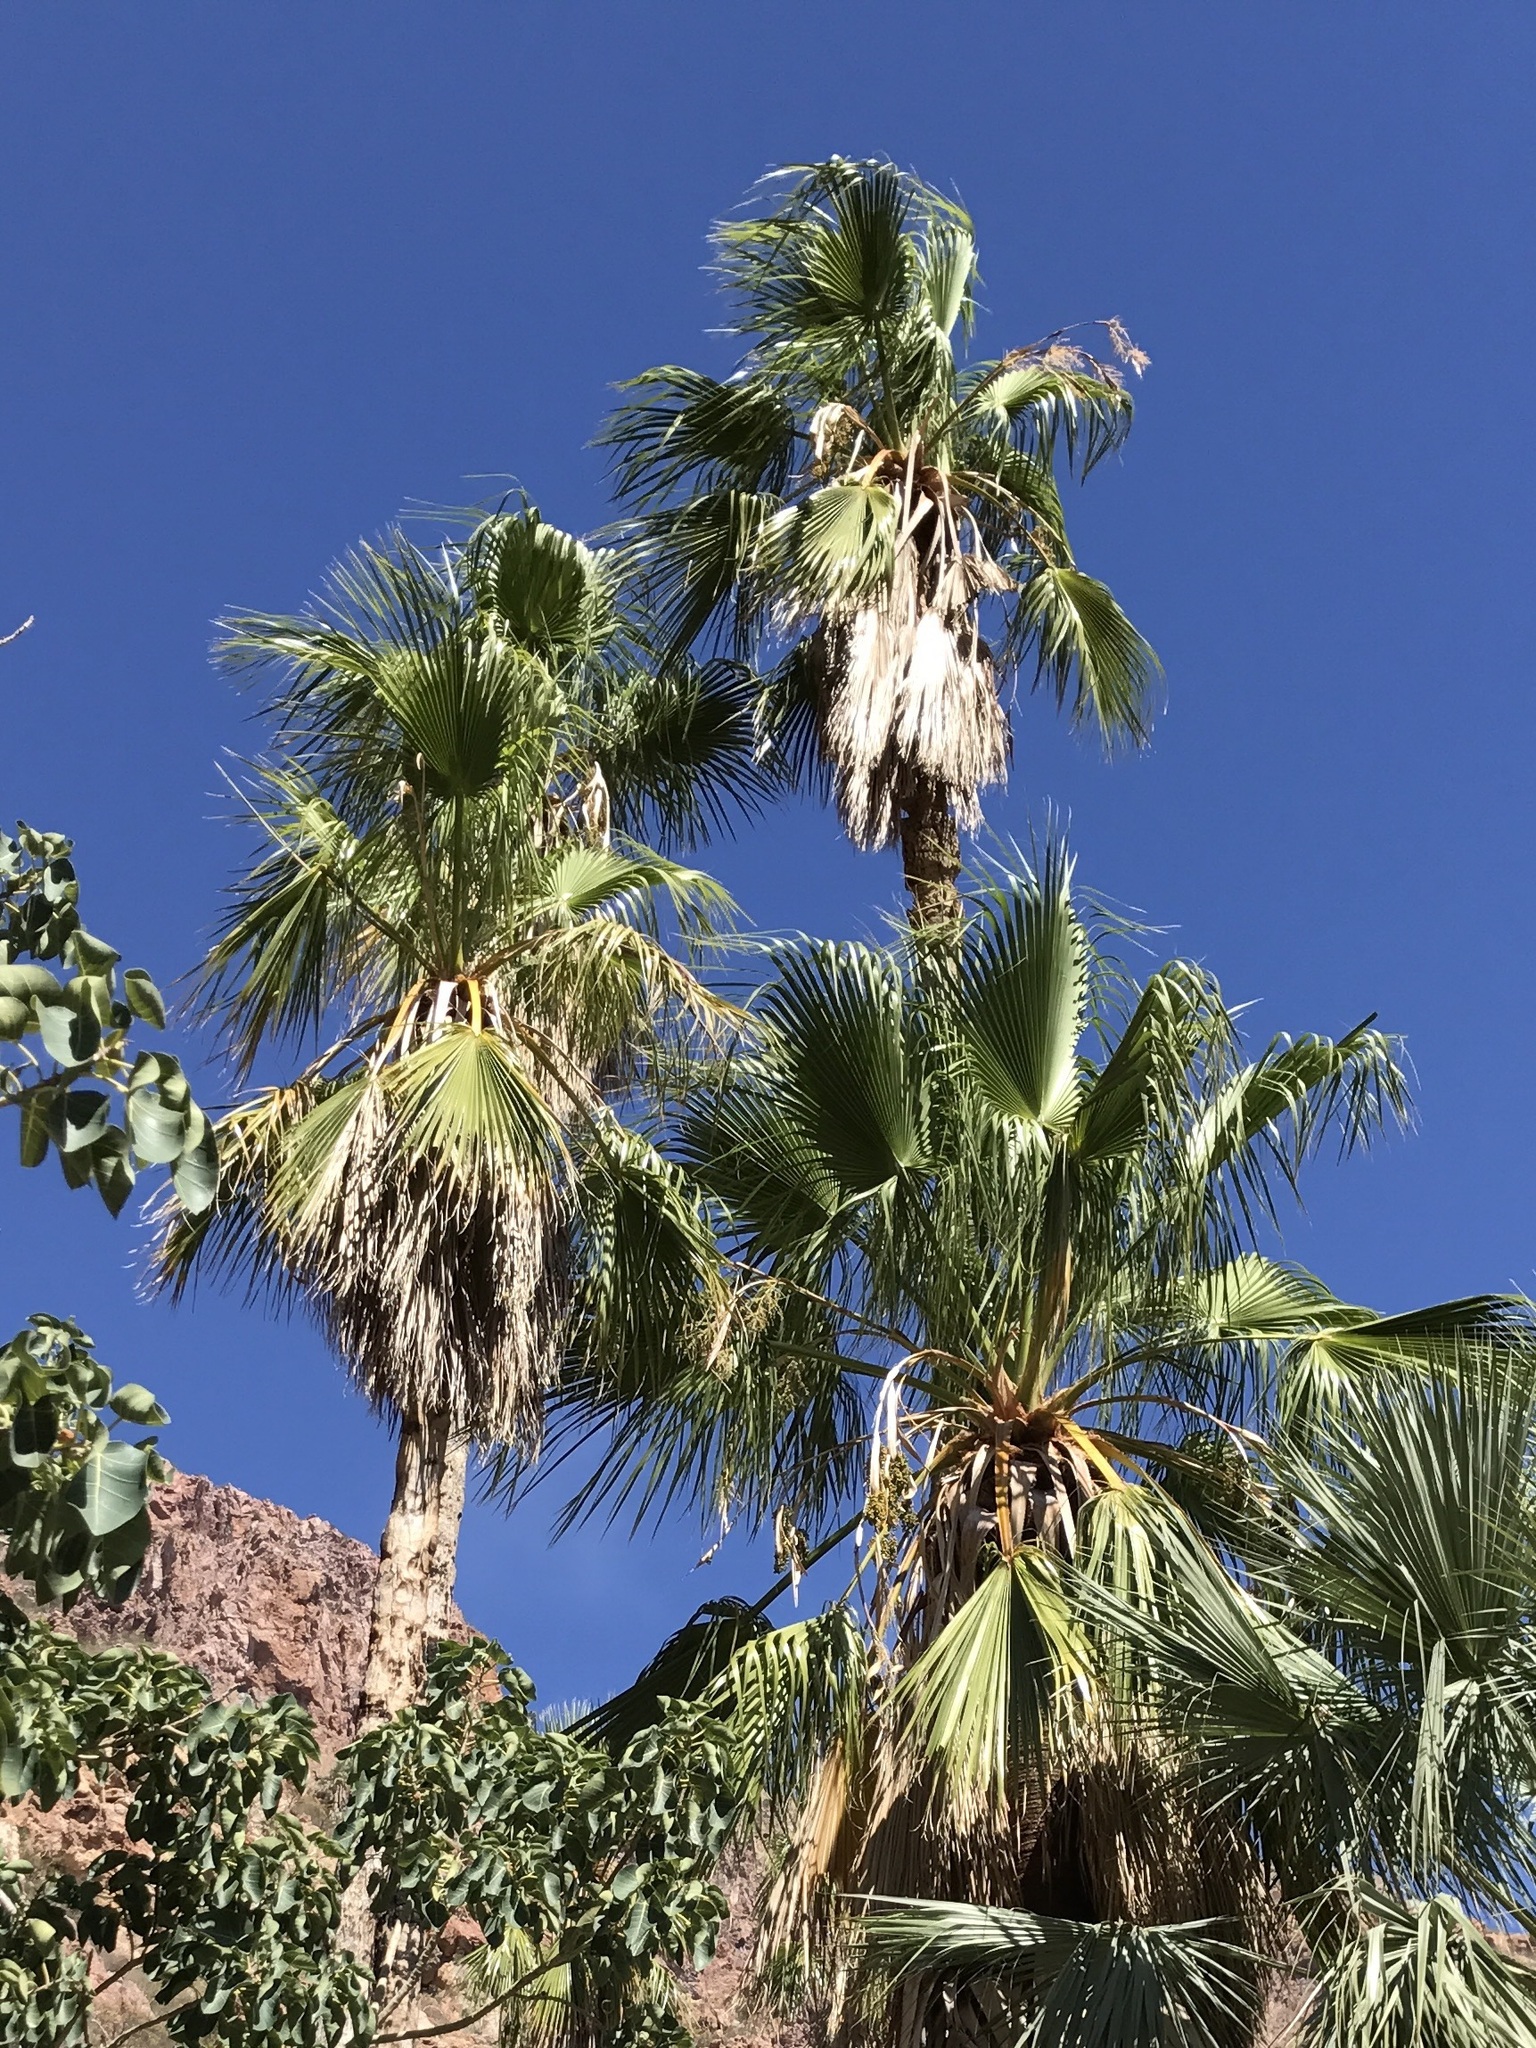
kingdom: Plantae
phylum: Tracheophyta
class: Liliopsida
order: Arecales
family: Arecaceae
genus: Washingtonia
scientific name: Washingtonia robusta
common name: Mexican fan palm
